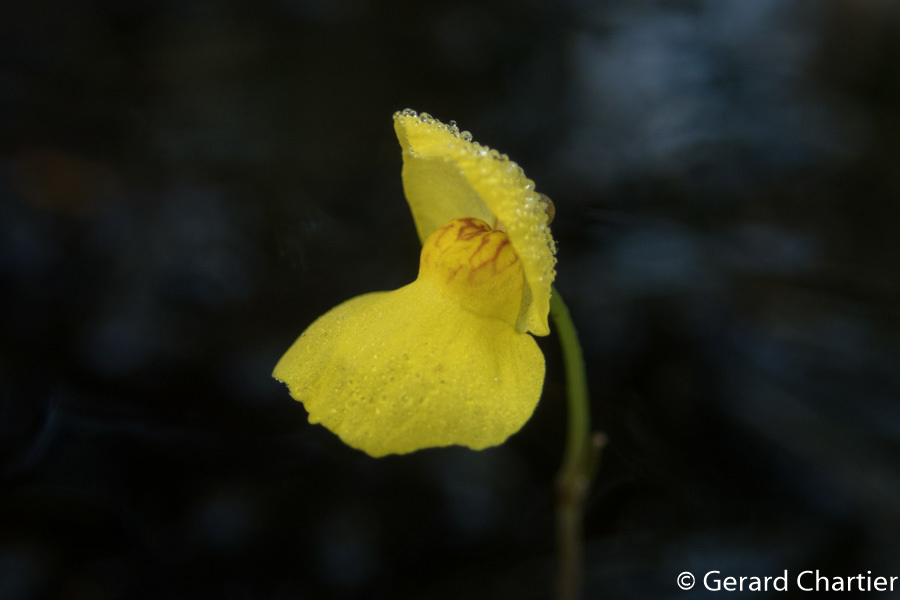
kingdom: Plantae
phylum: Tracheophyta
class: Magnoliopsida
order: Lamiales
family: Lentibulariaceae
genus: Utricularia
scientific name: Utricularia aurea
